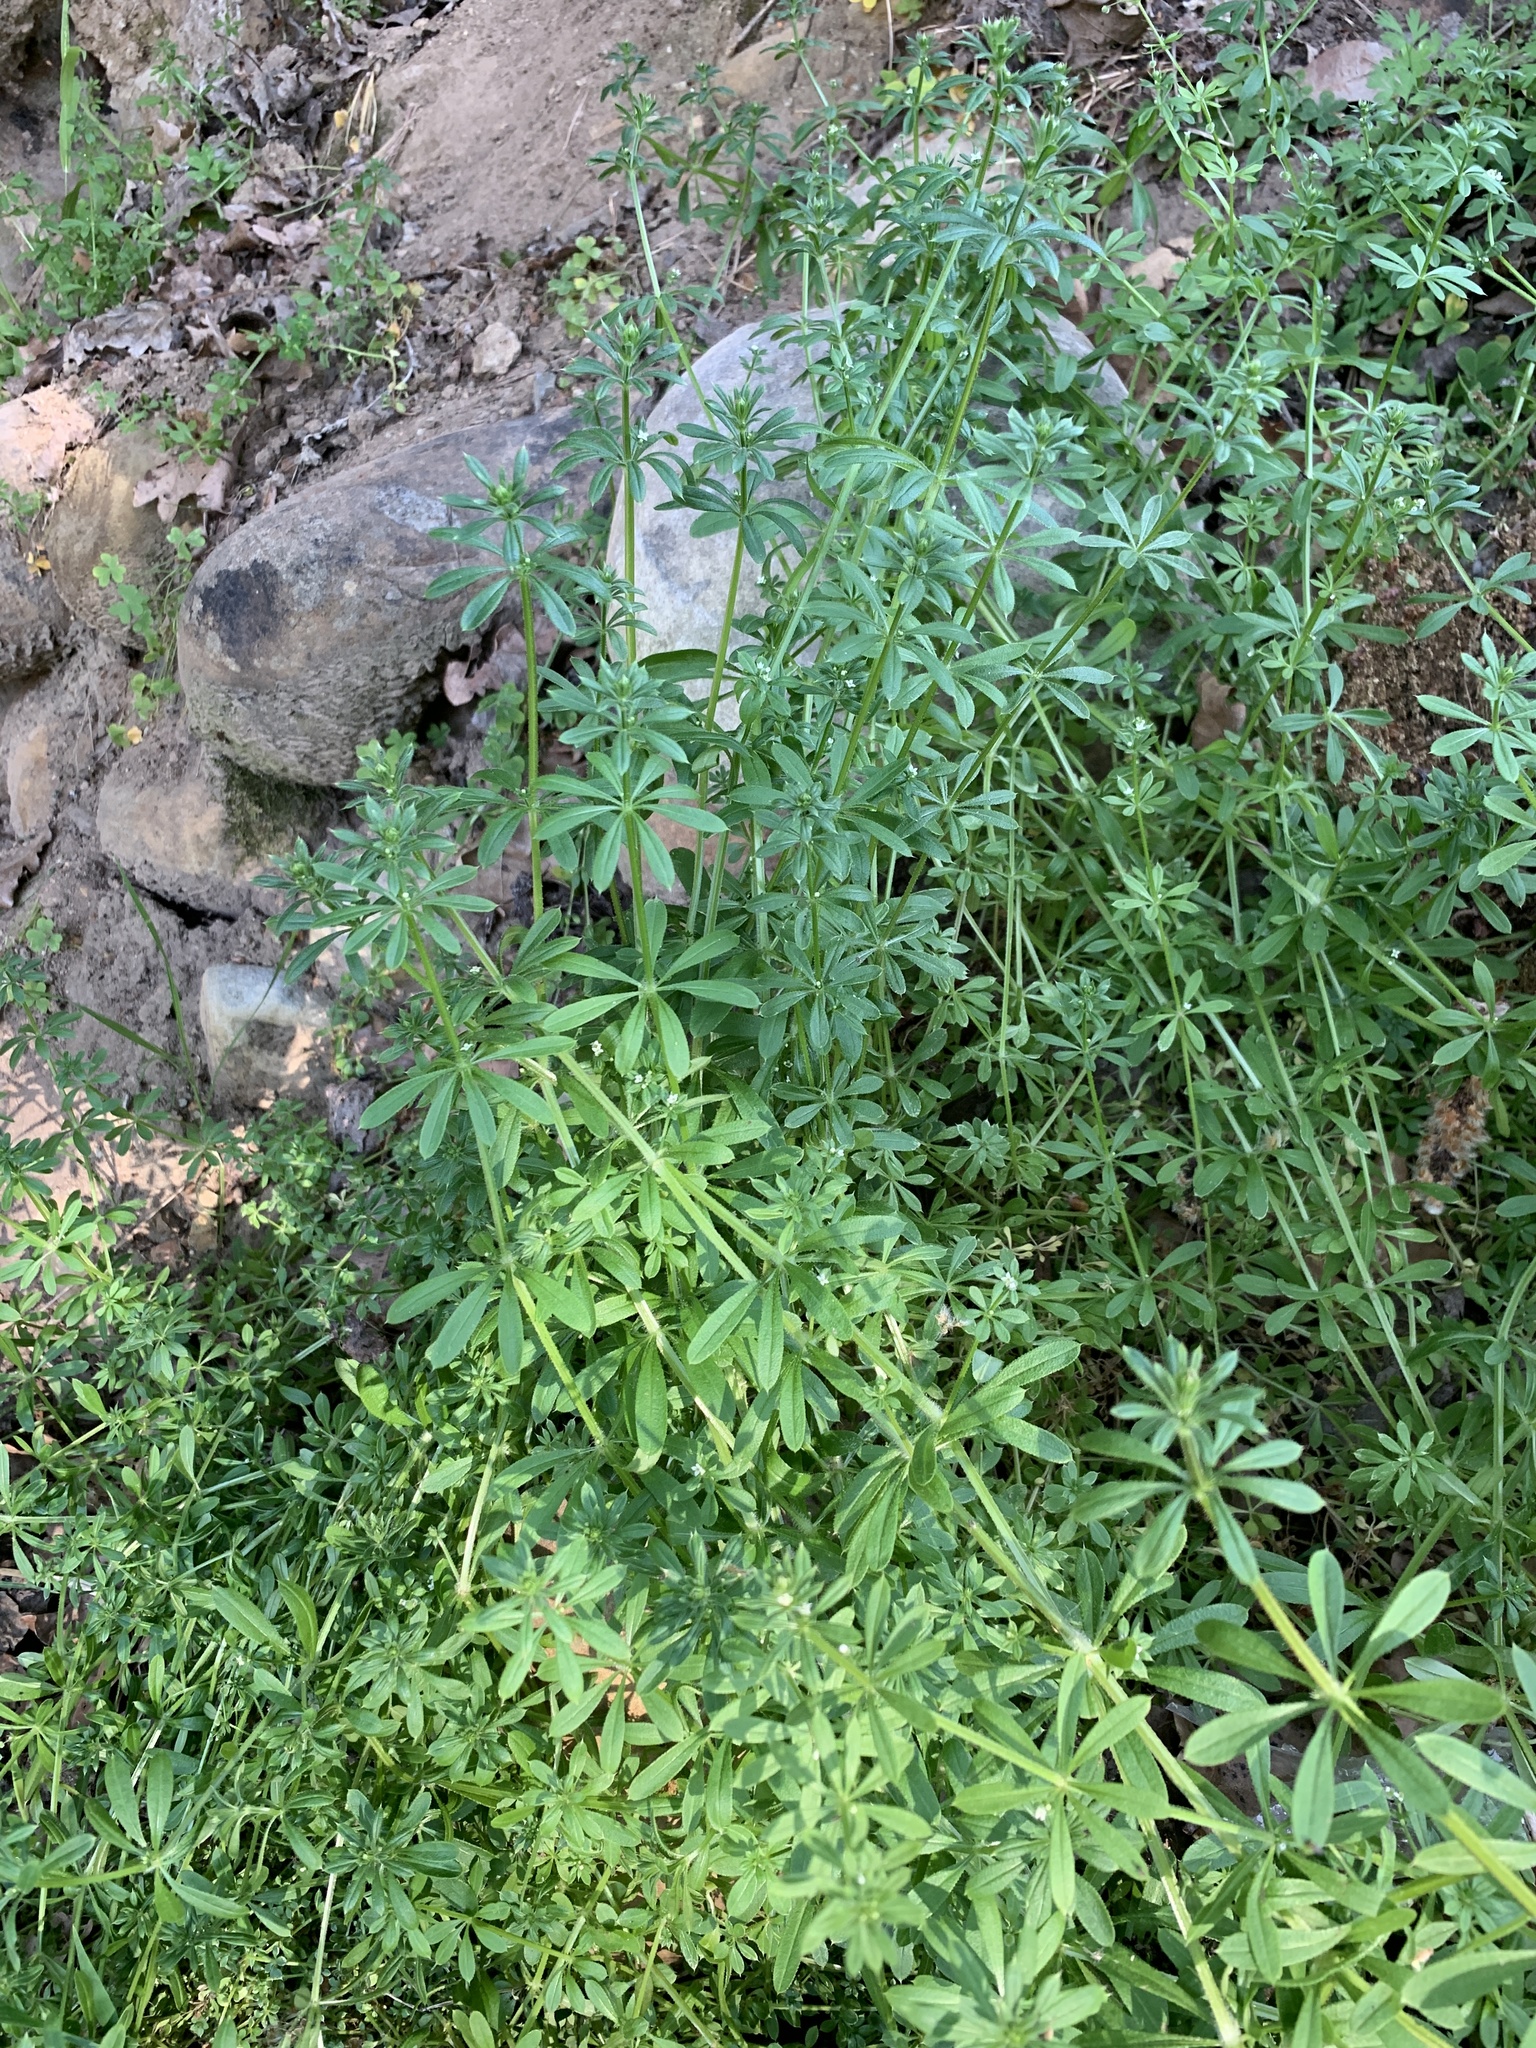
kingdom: Plantae
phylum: Tracheophyta
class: Magnoliopsida
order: Gentianales
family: Rubiaceae
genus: Galium
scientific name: Galium aparine
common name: Cleavers
